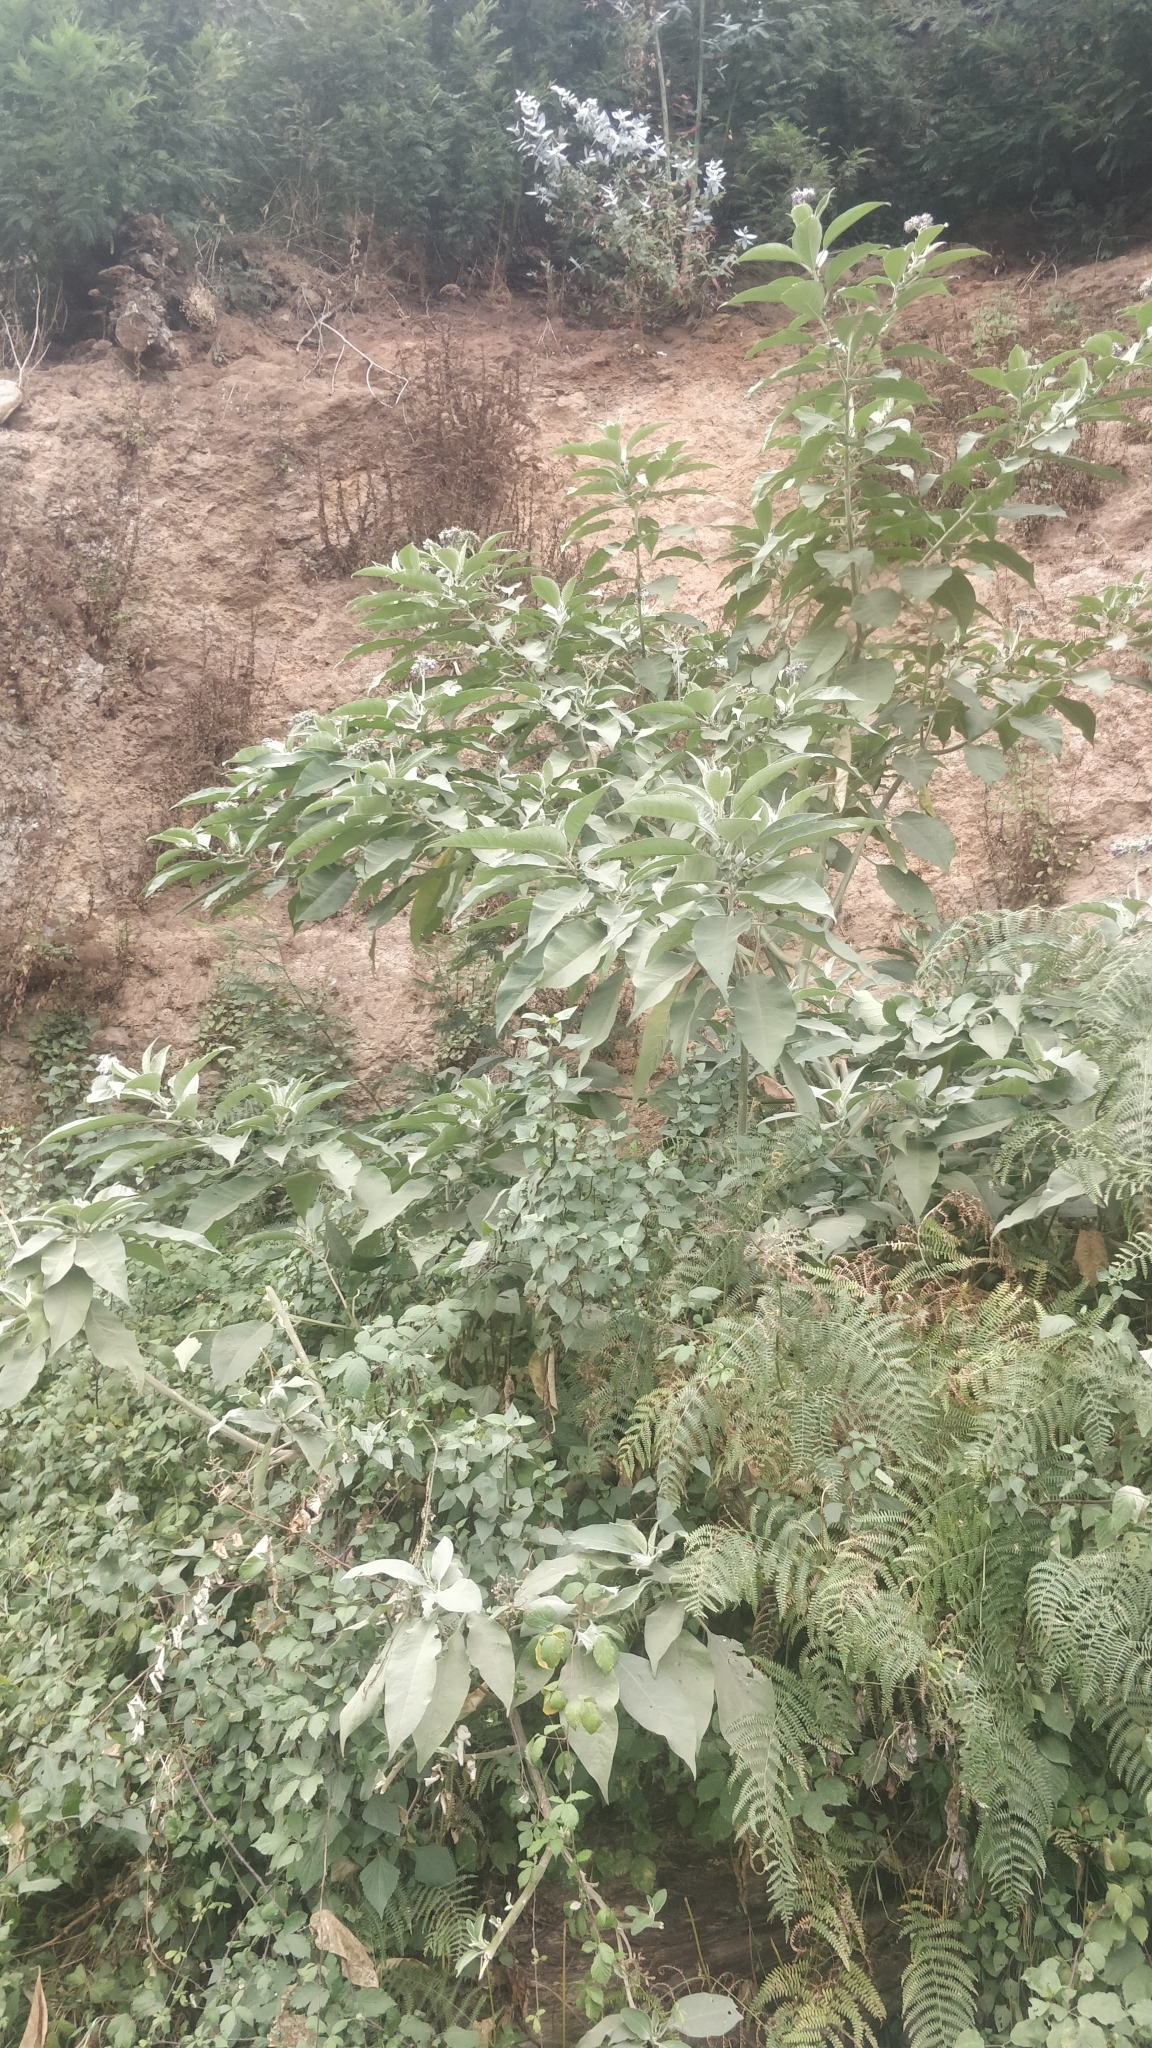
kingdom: Plantae
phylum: Tracheophyta
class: Magnoliopsida
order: Solanales
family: Solanaceae
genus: Solanum
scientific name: Solanum mauritianum
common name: Earleaf nightshade
